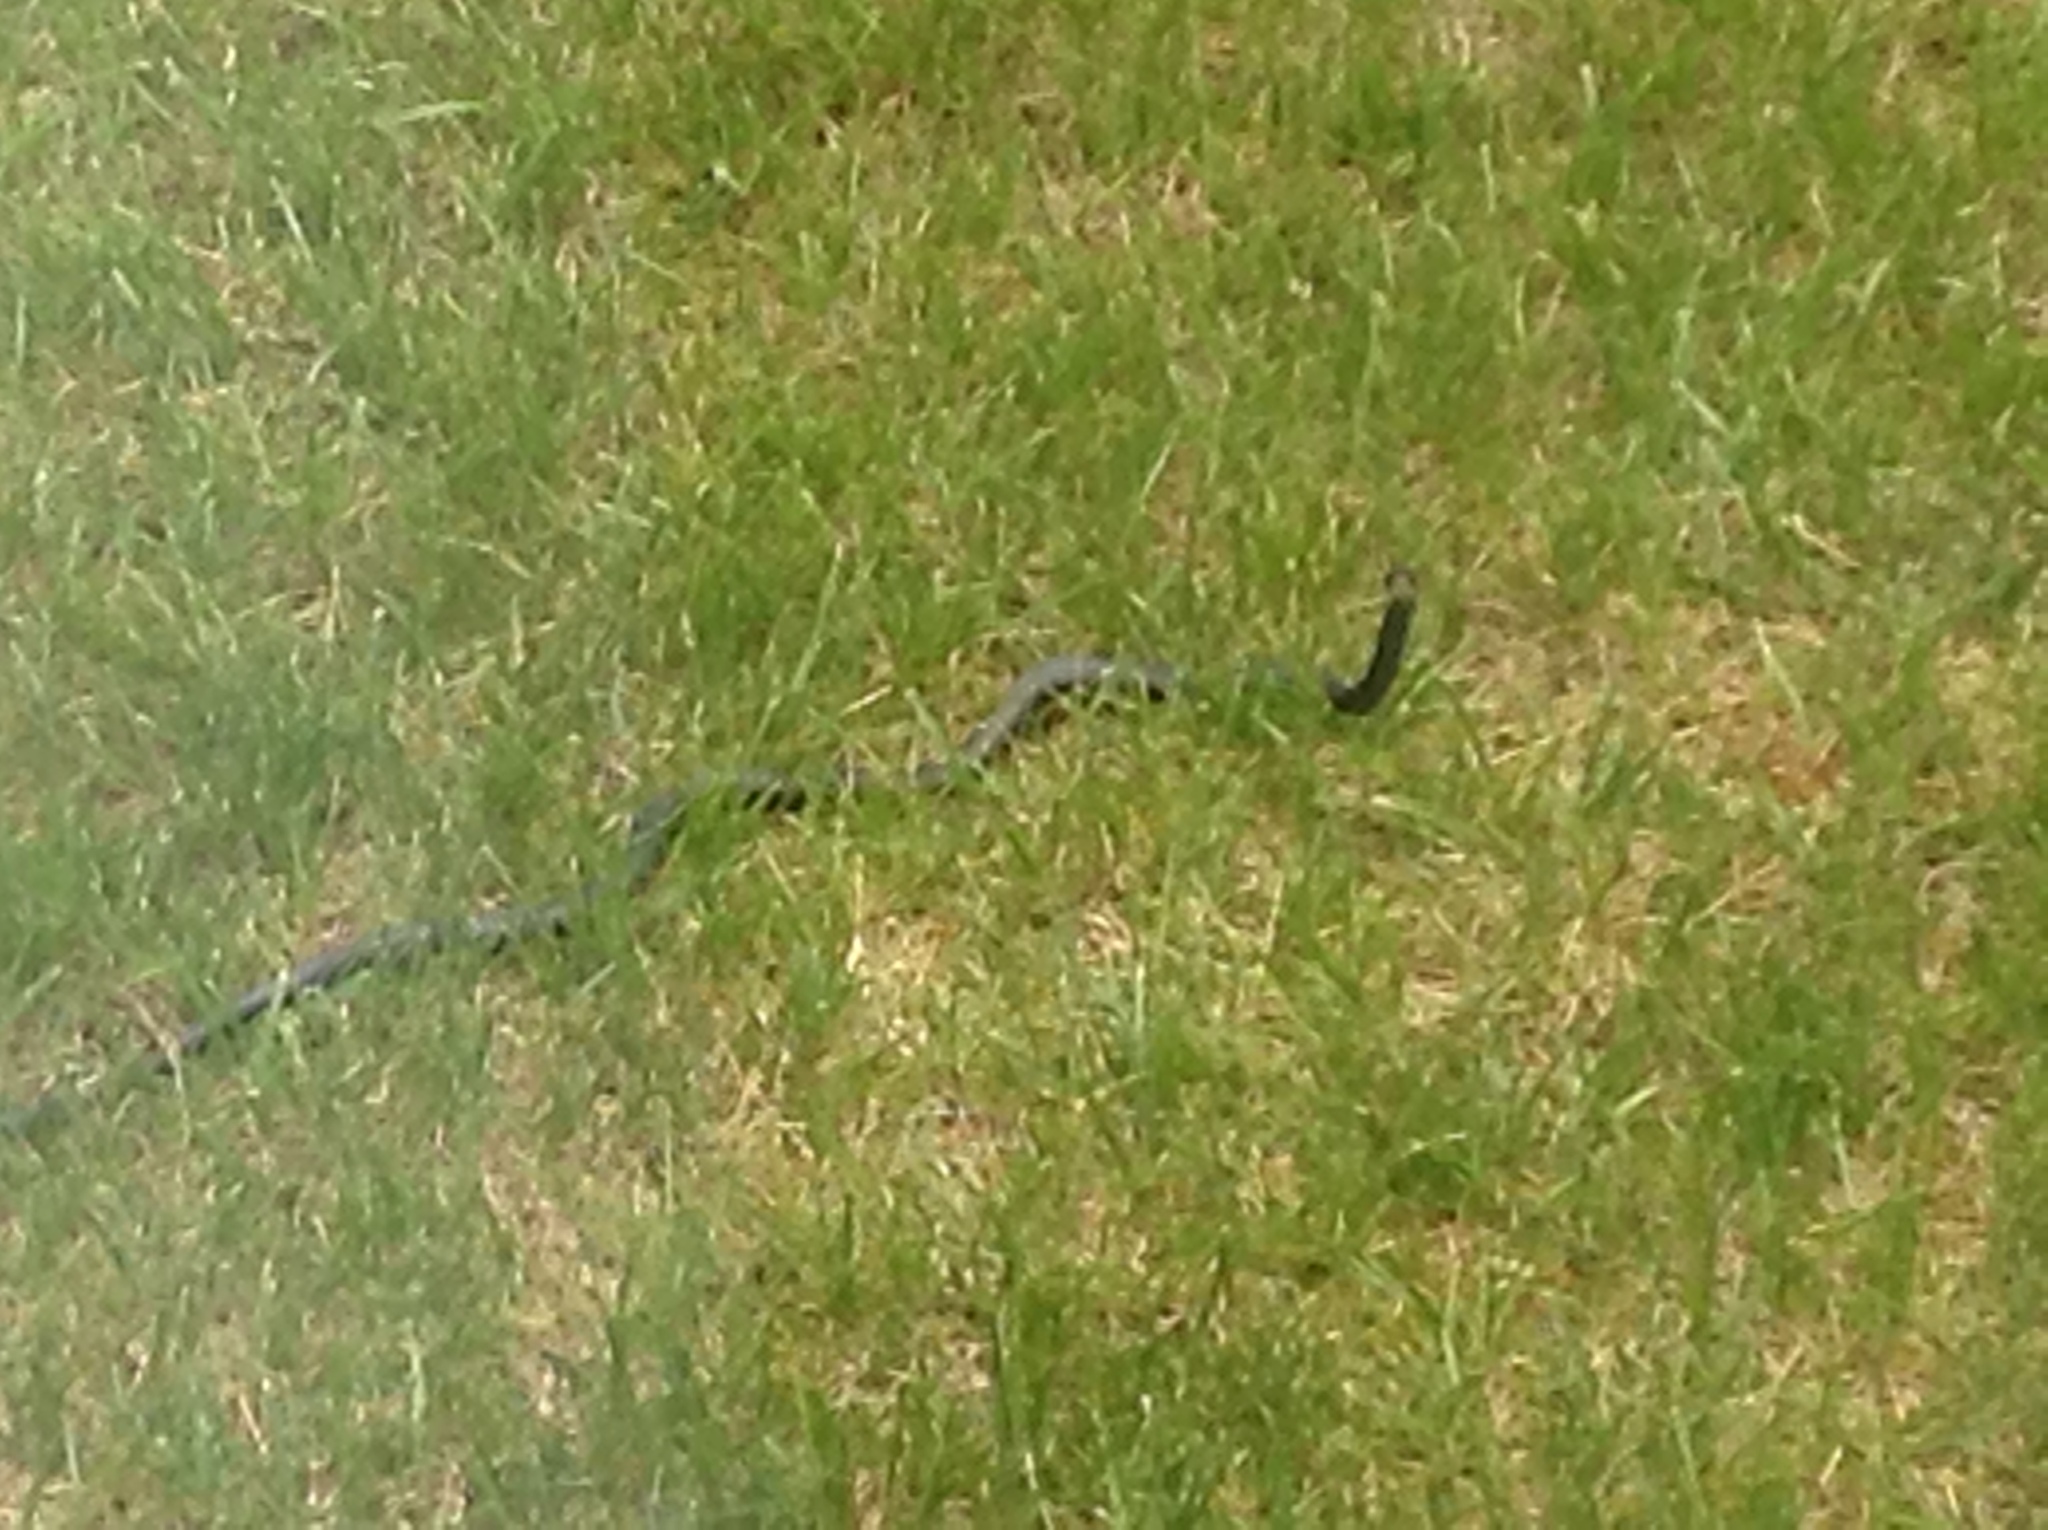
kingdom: Animalia
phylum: Chordata
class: Squamata
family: Colubridae
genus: Coluber
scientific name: Coluber constrictor
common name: Eastern racer
